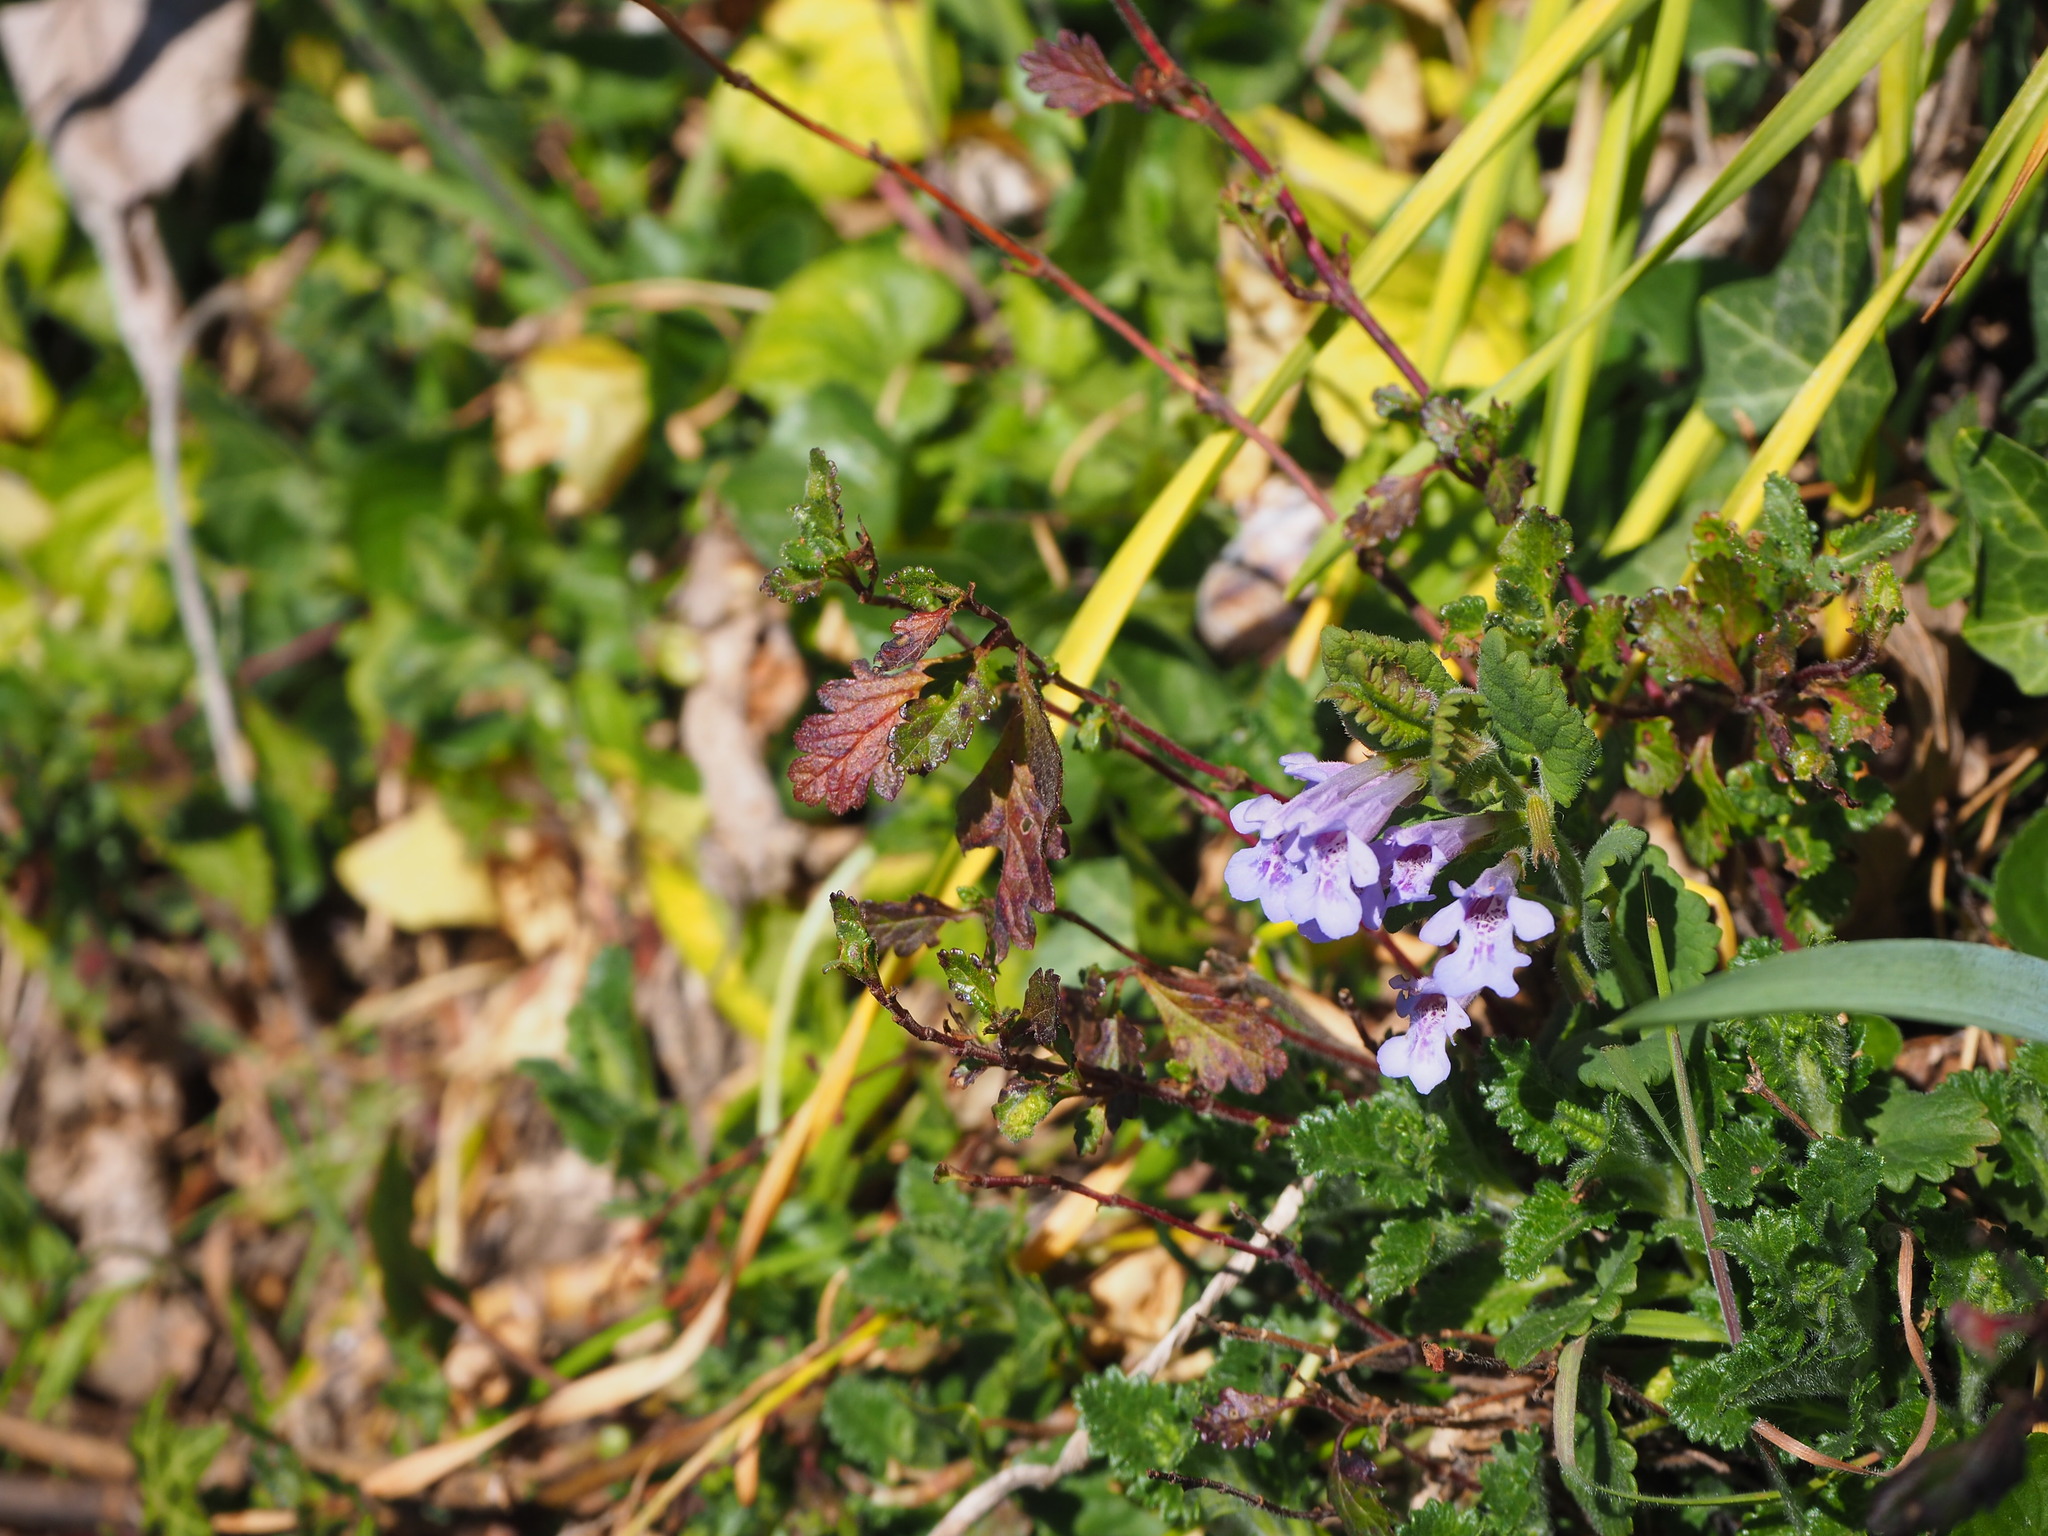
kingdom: Plantae
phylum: Tracheophyta
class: Magnoliopsida
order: Lamiales
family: Lamiaceae
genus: Glechoma
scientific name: Glechoma hederacea
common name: Ground ivy
